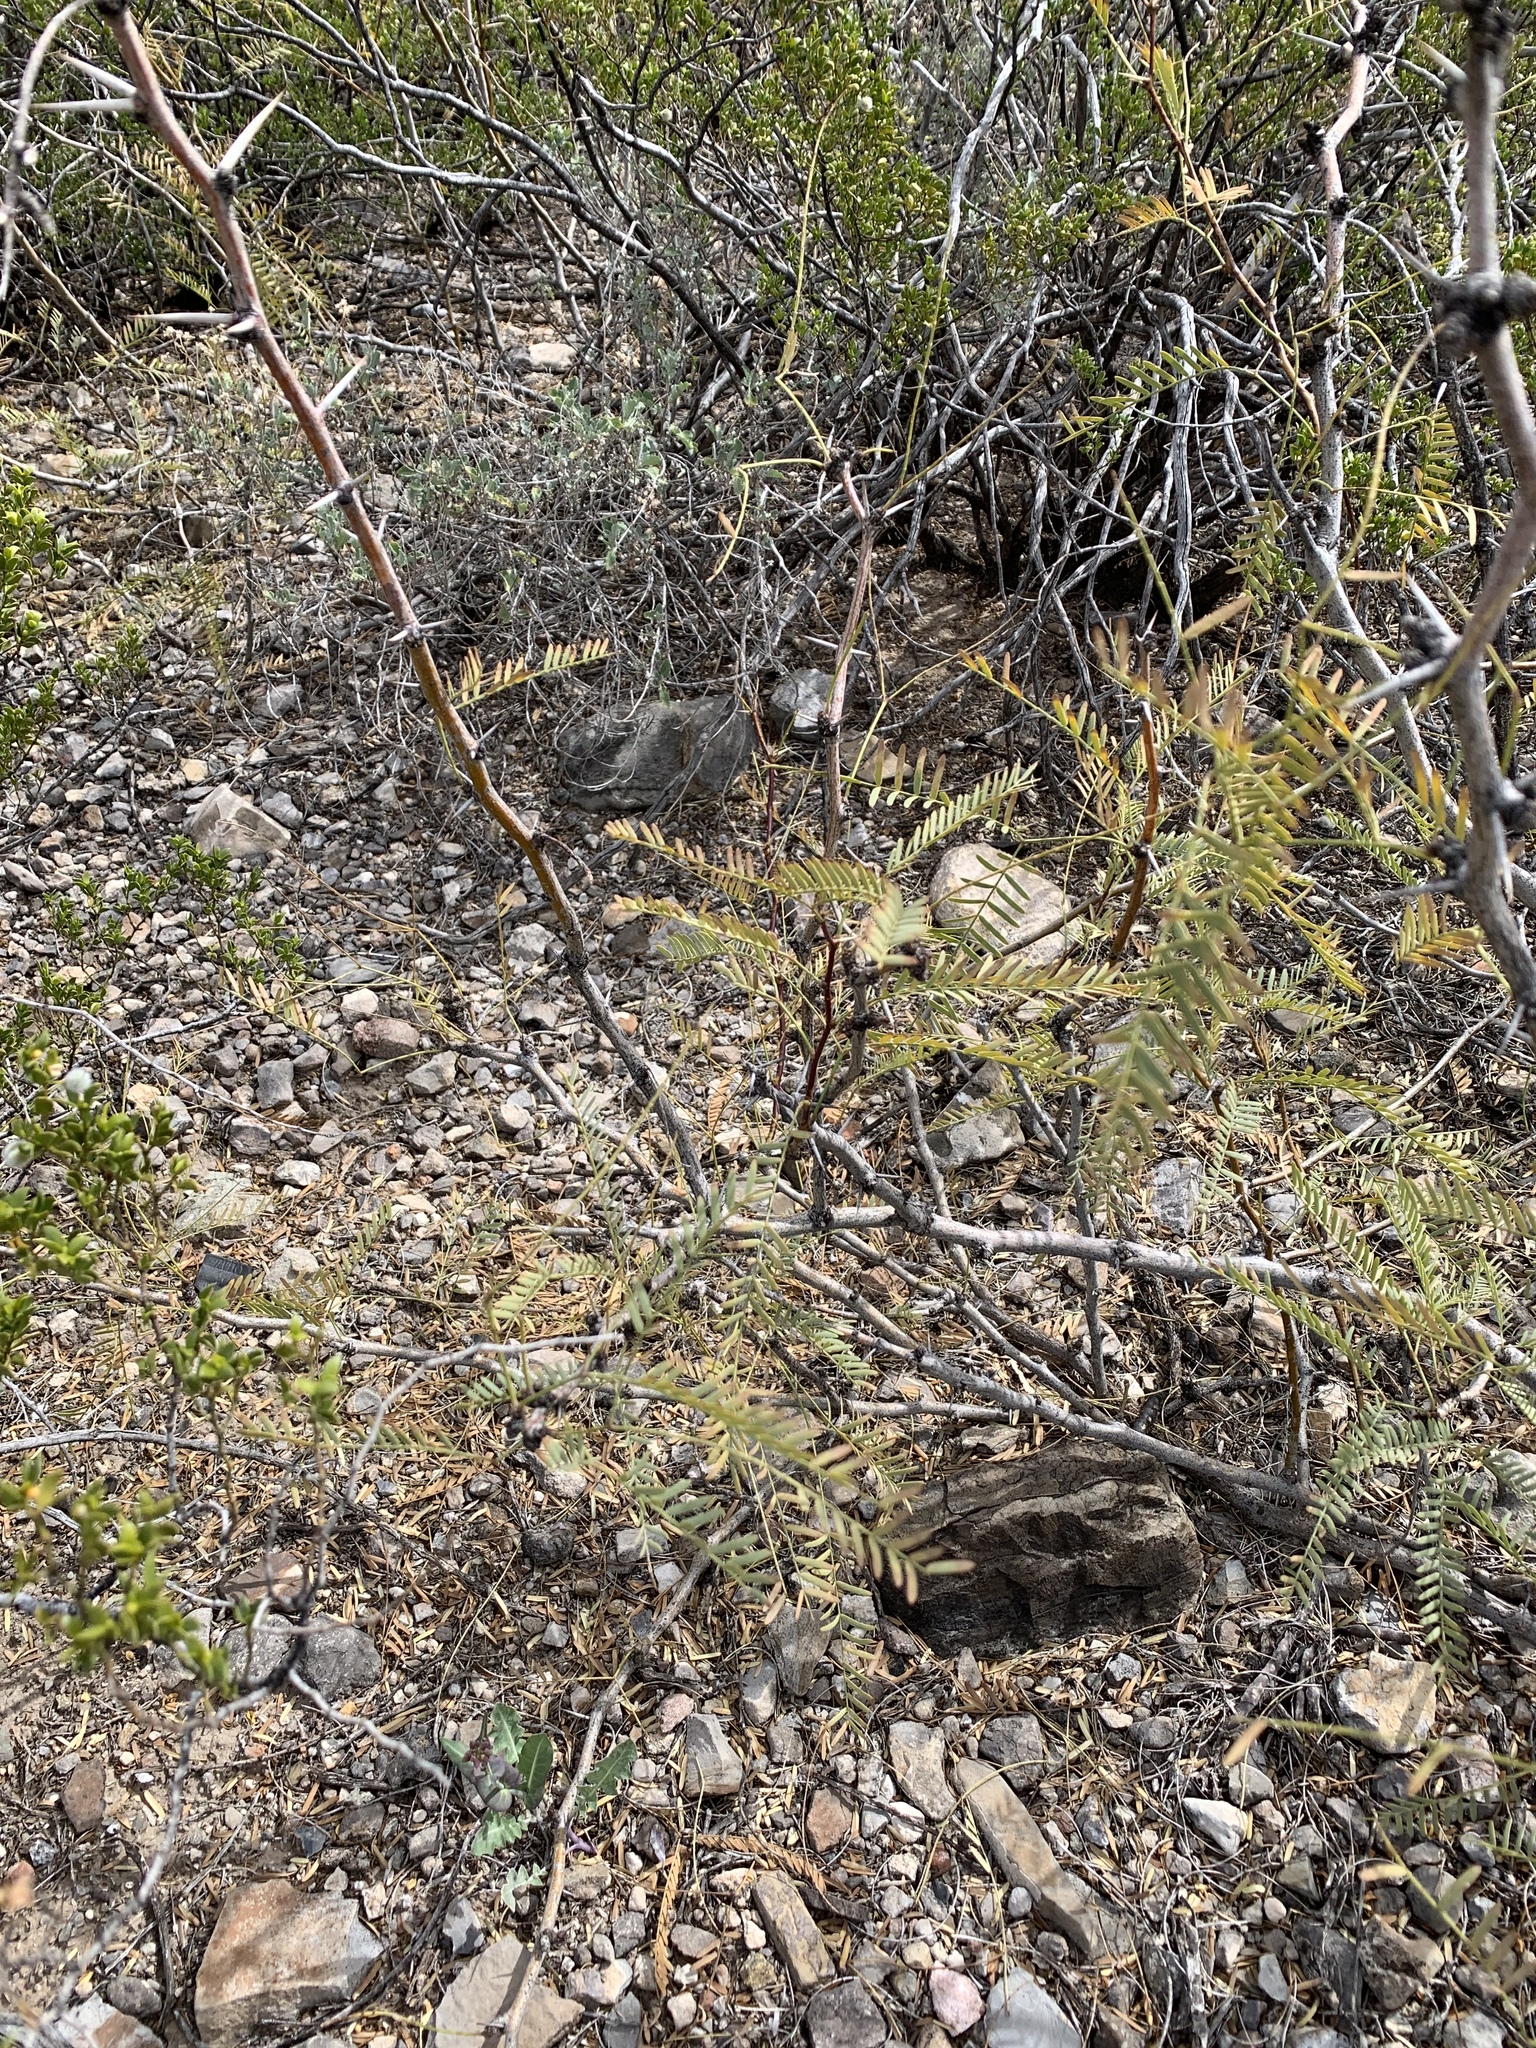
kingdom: Plantae
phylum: Tracheophyta
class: Magnoliopsida
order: Fabales
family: Fabaceae
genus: Prosopis
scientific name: Prosopis glandulosa
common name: Honey mesquite
